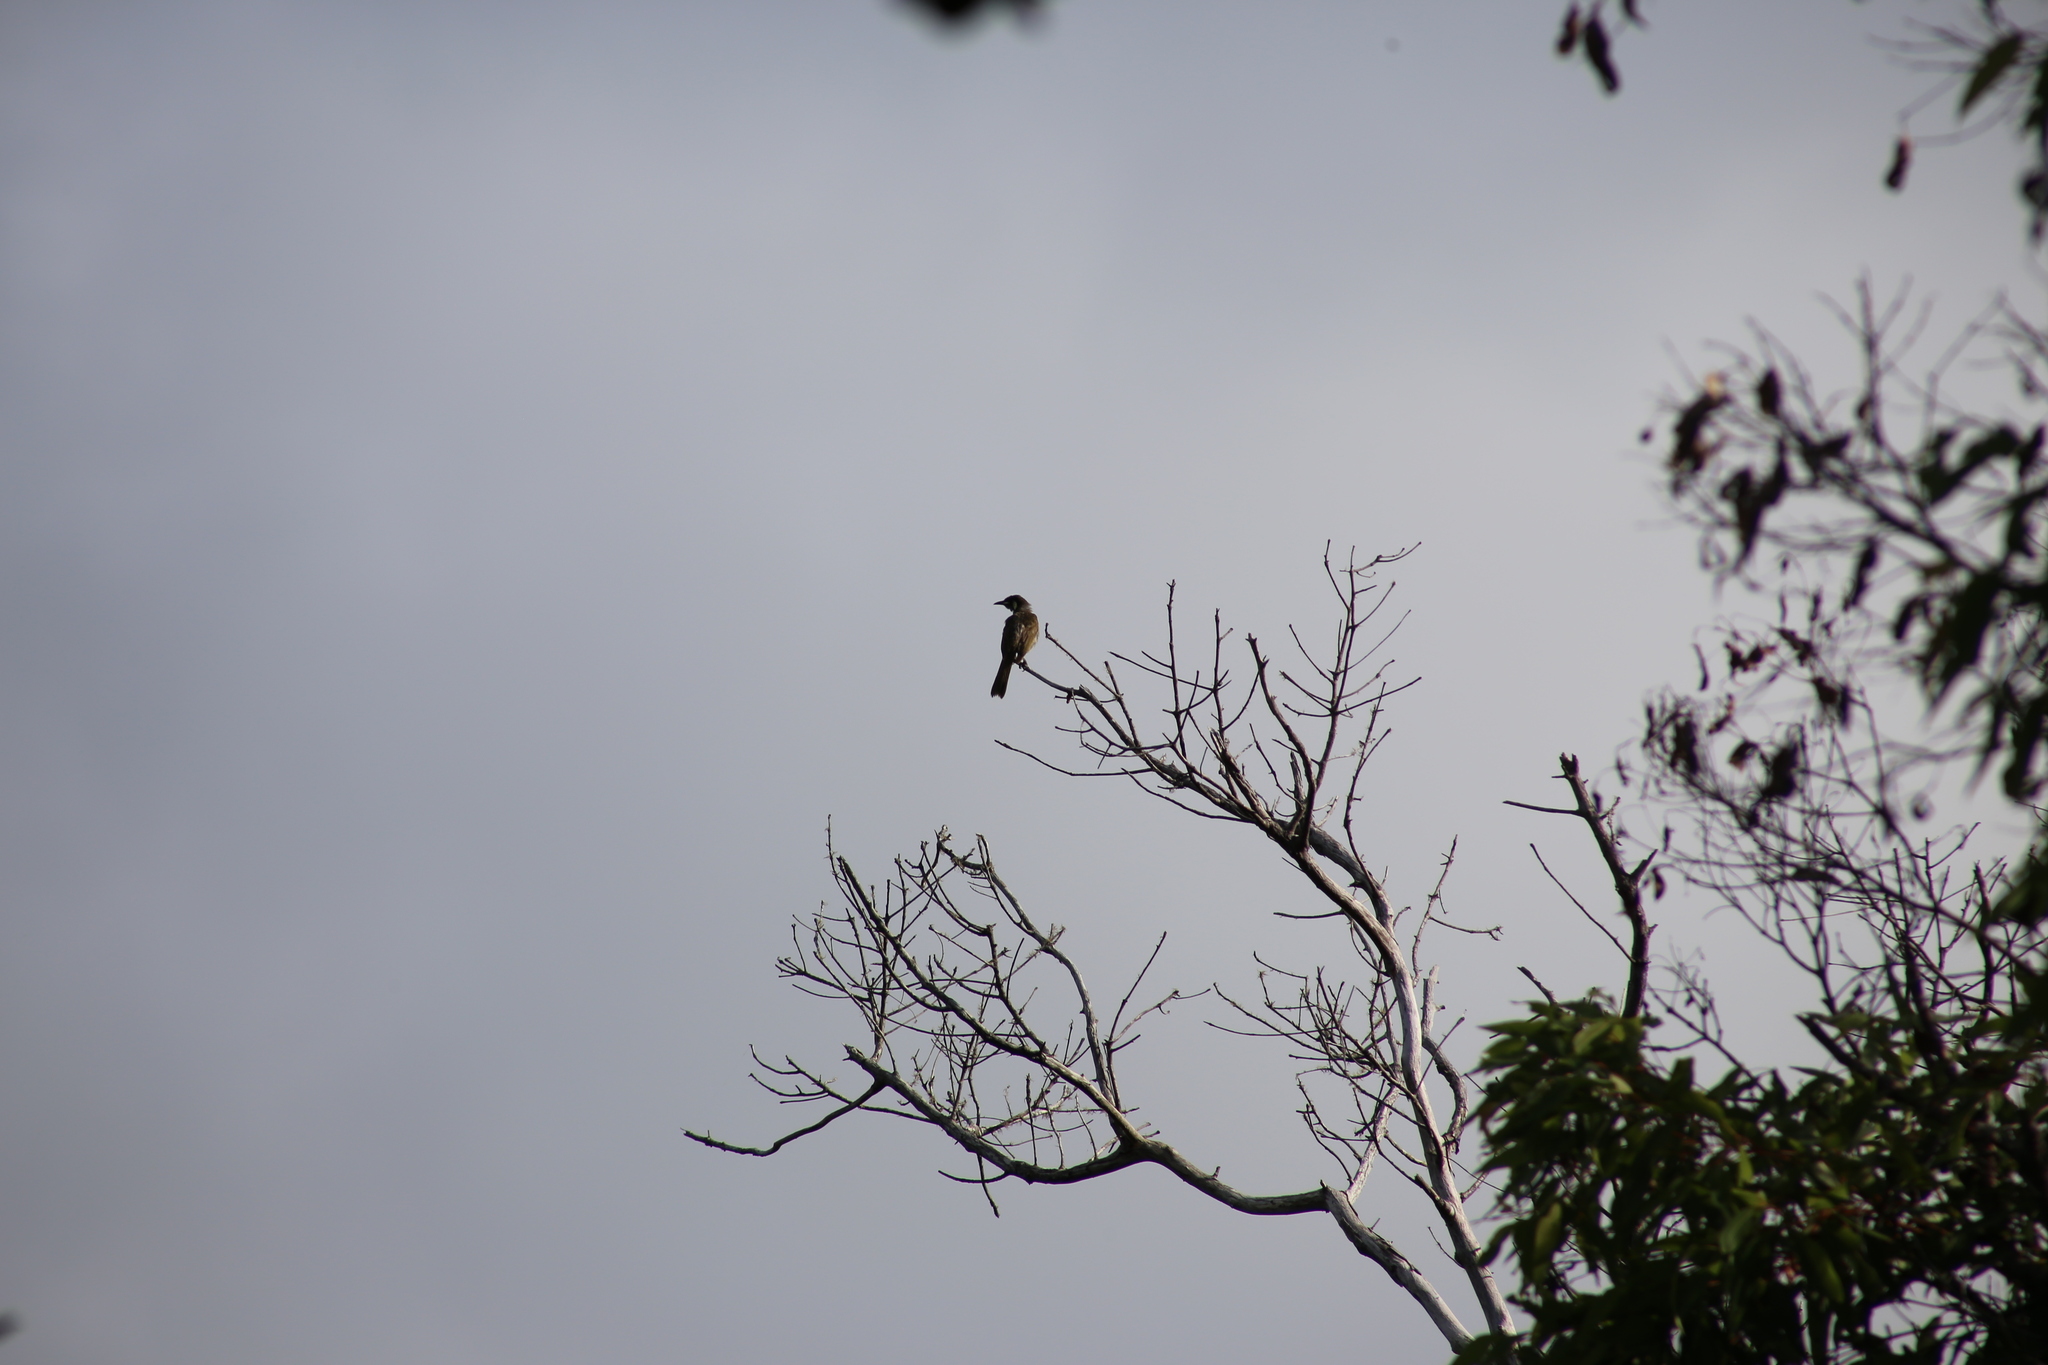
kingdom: Animalia
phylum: Chordata
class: Aves
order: Passeriformes
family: Meliphagidae
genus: Meliphaga
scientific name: Meliphaga lewinii
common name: Lewin's honeyeater
